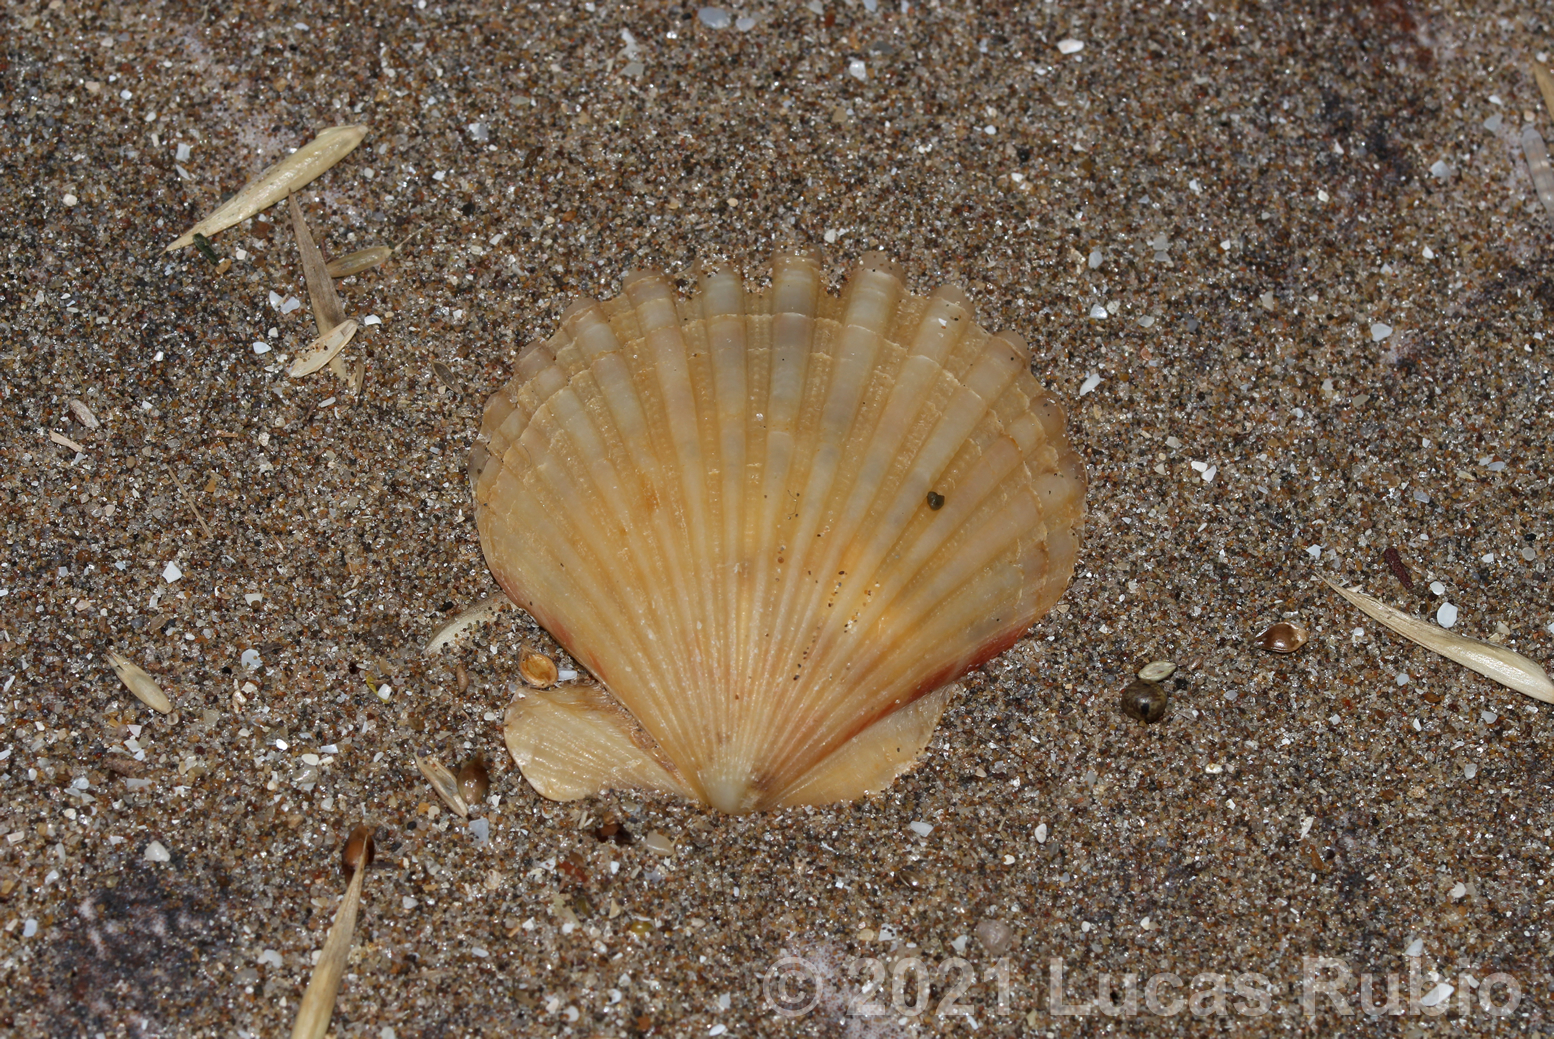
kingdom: Animalia
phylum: Mollusca
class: Bivalvia
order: Pectinida
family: Pectinidae
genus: Aequipecten
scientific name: Aequipecten tehuelchus
